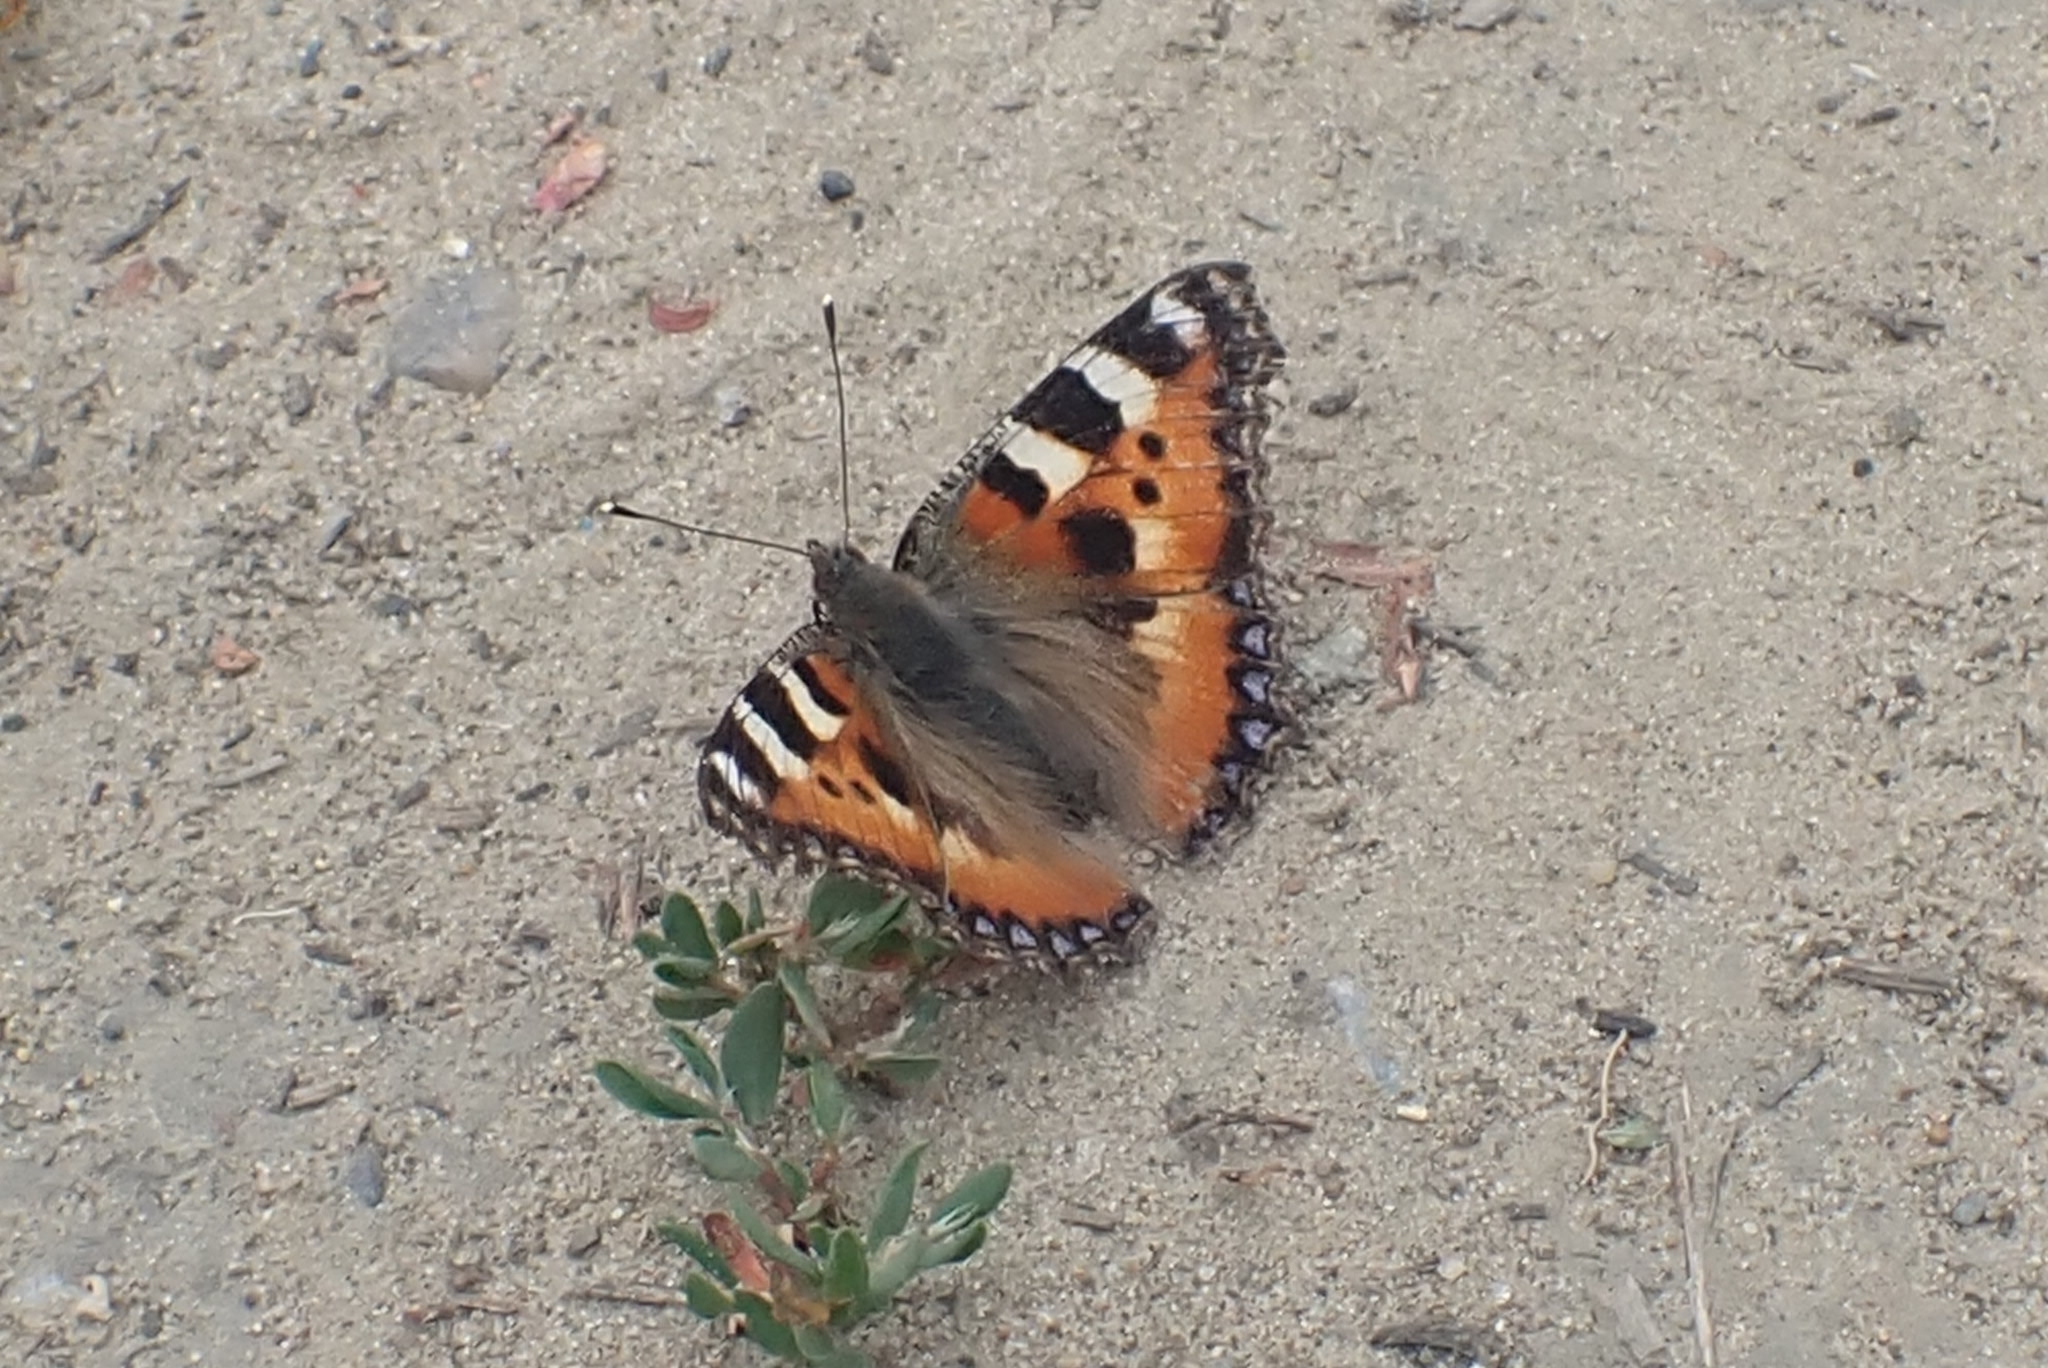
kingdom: Animalia
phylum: Arthropoda
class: Insecta
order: Lepidoptera
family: Nymphalidae
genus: Aglais
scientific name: Aglais urticae
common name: Small tortoiseshell
